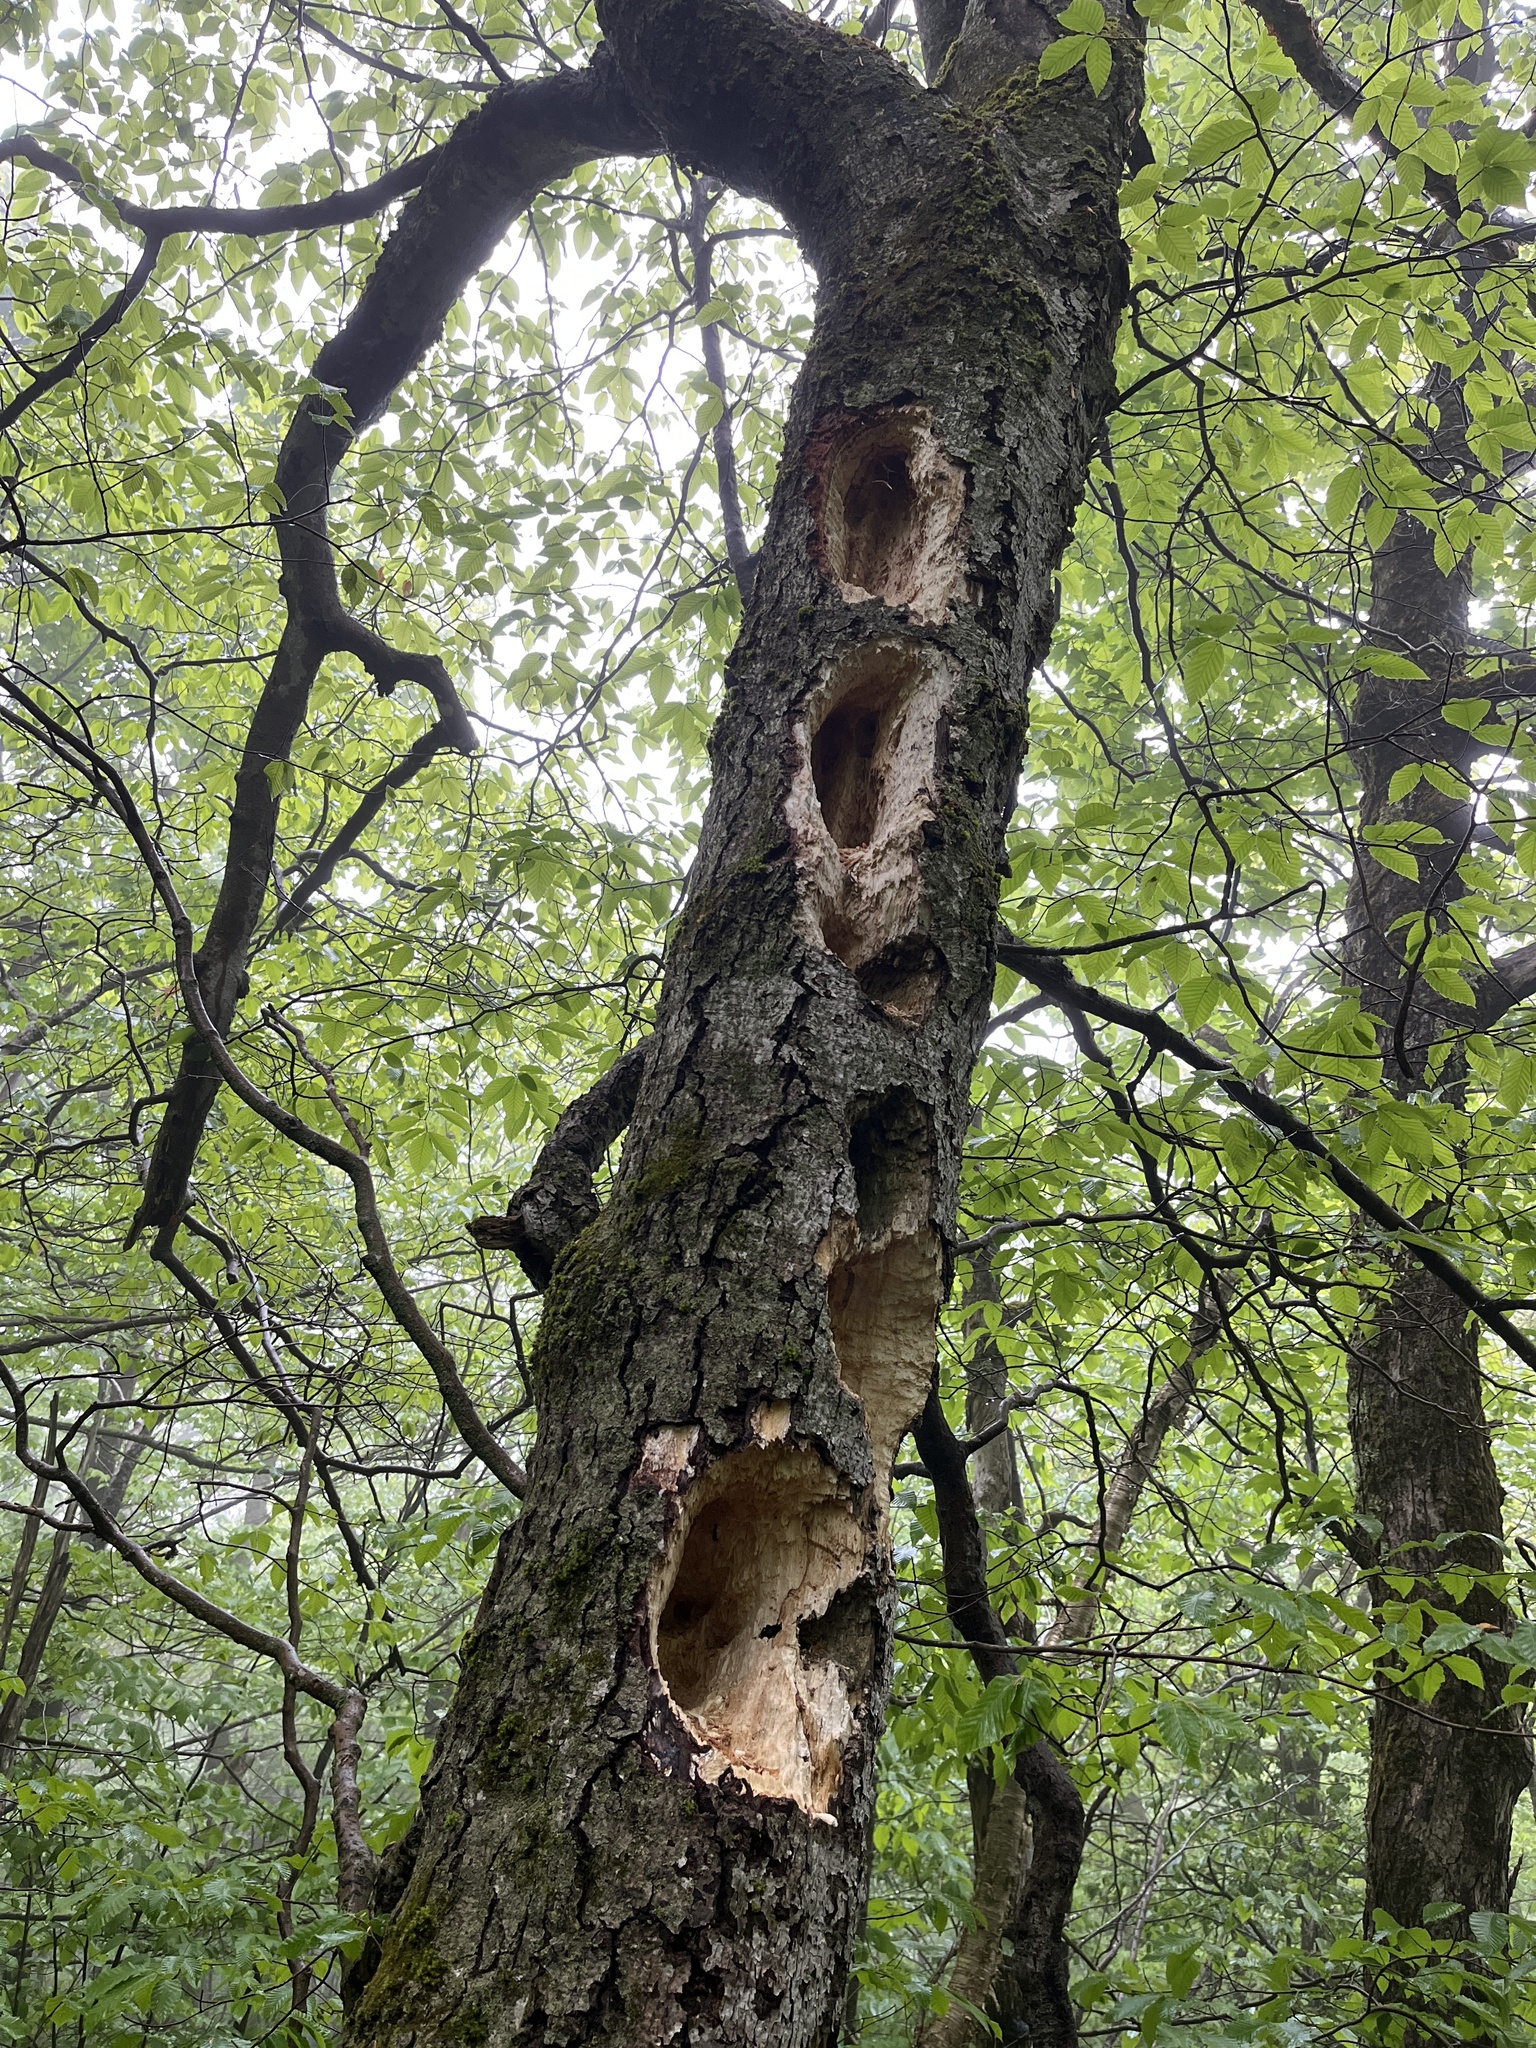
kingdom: Animalia
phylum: Chordata
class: Aves
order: Piciformes
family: Picidae
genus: Dryocopus
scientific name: Dryocopus pileatus
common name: Pileated woodpecker
